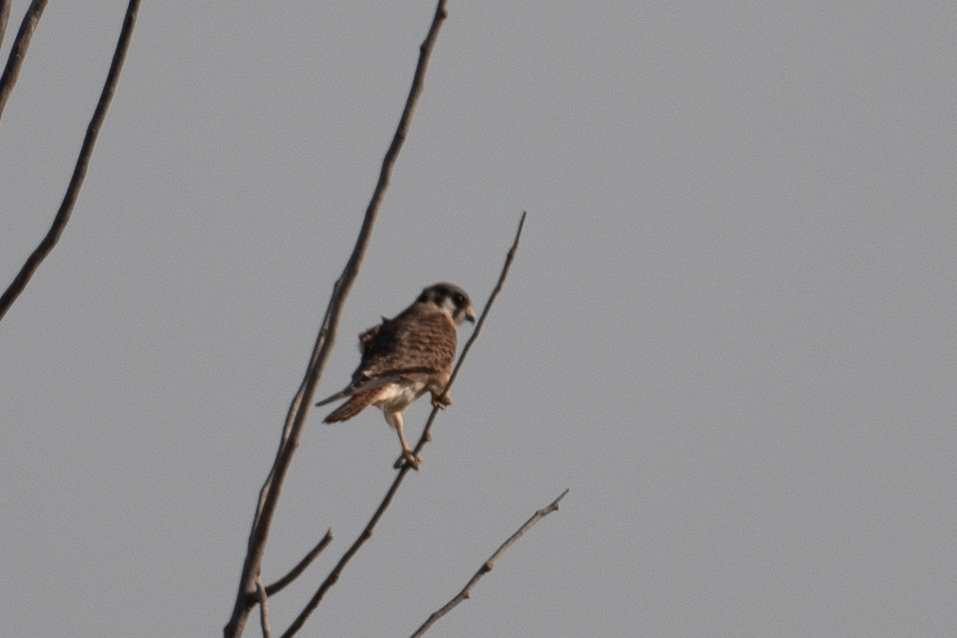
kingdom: Animalia
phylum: Chordata
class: Aves
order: Falconiformes
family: Falconidae
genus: Falco
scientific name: Falco sparverius
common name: American kestrel
